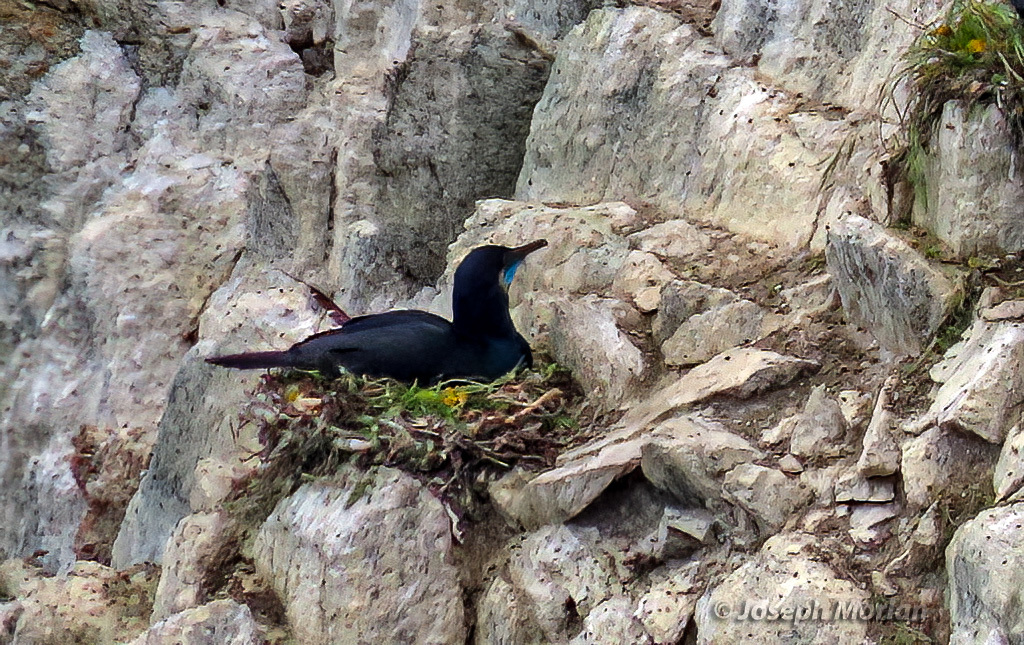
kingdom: Animalia
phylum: Chordata
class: Aves
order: Suliformes
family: Phalacrocoracidae
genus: Urile
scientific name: Urile penicillatus
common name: Brandt's cormorant
